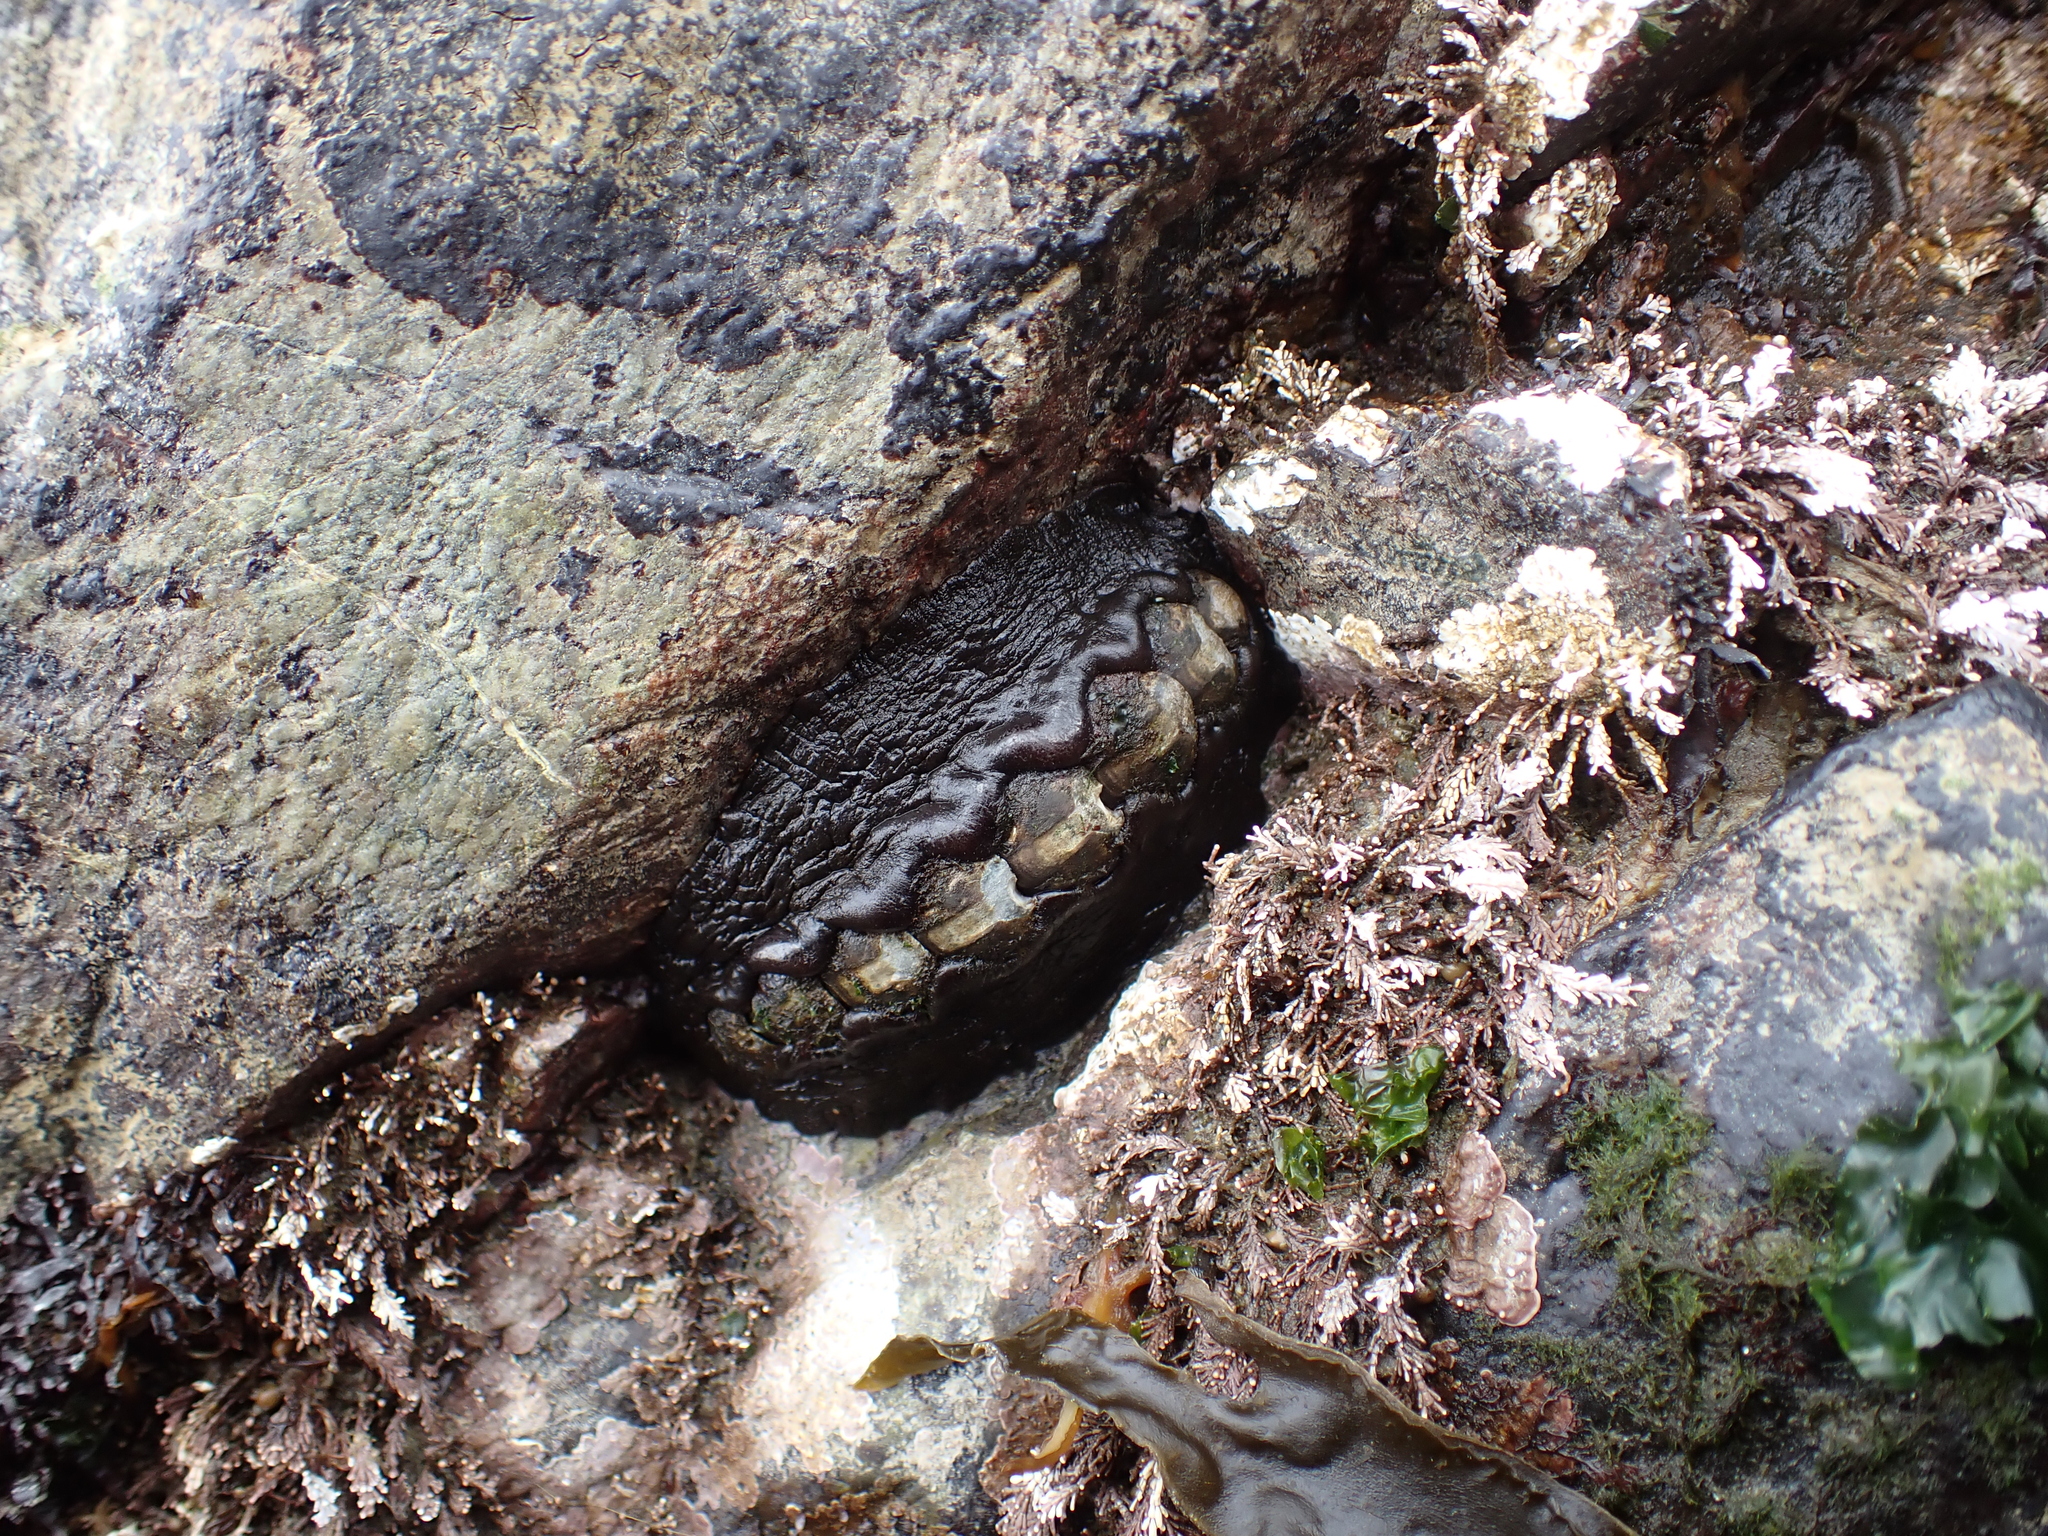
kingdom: Animalia
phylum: Mollusca
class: Polyplacophora
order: Chitonida
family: Mopaliidae
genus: Katharina
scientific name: Katharina tunicata
